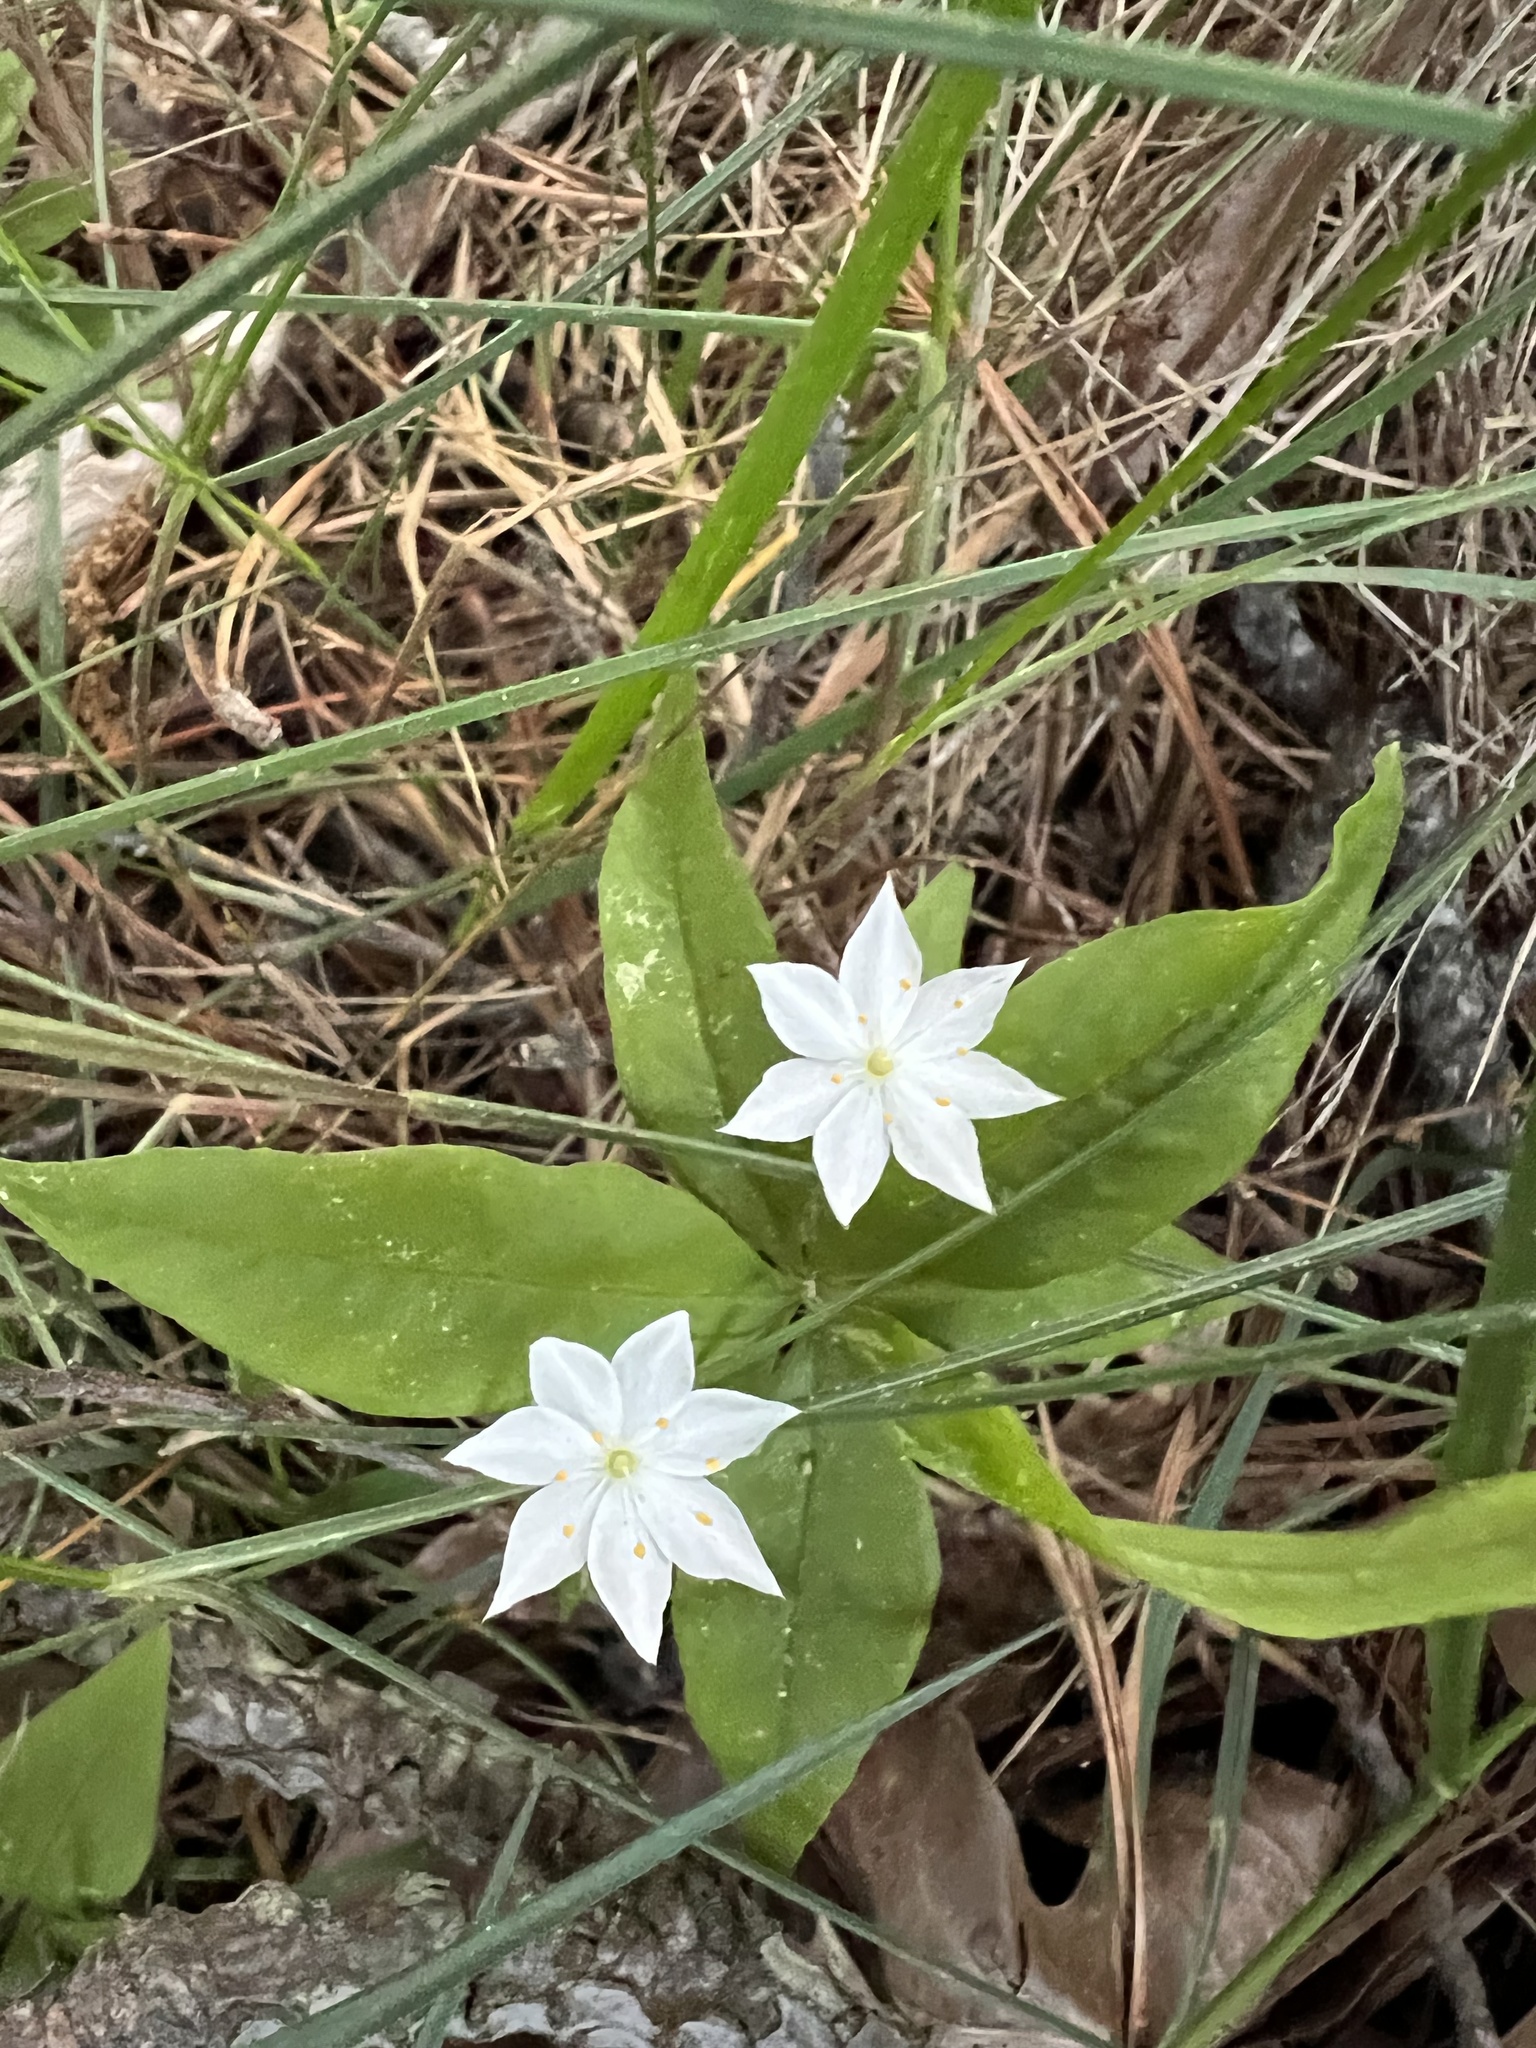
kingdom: Plantae
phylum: Tracheophyta
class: Magnoliopsida
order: Ericales
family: Primulaceae
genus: Lysimachia
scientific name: Lysimachia borealis
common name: American starflower
